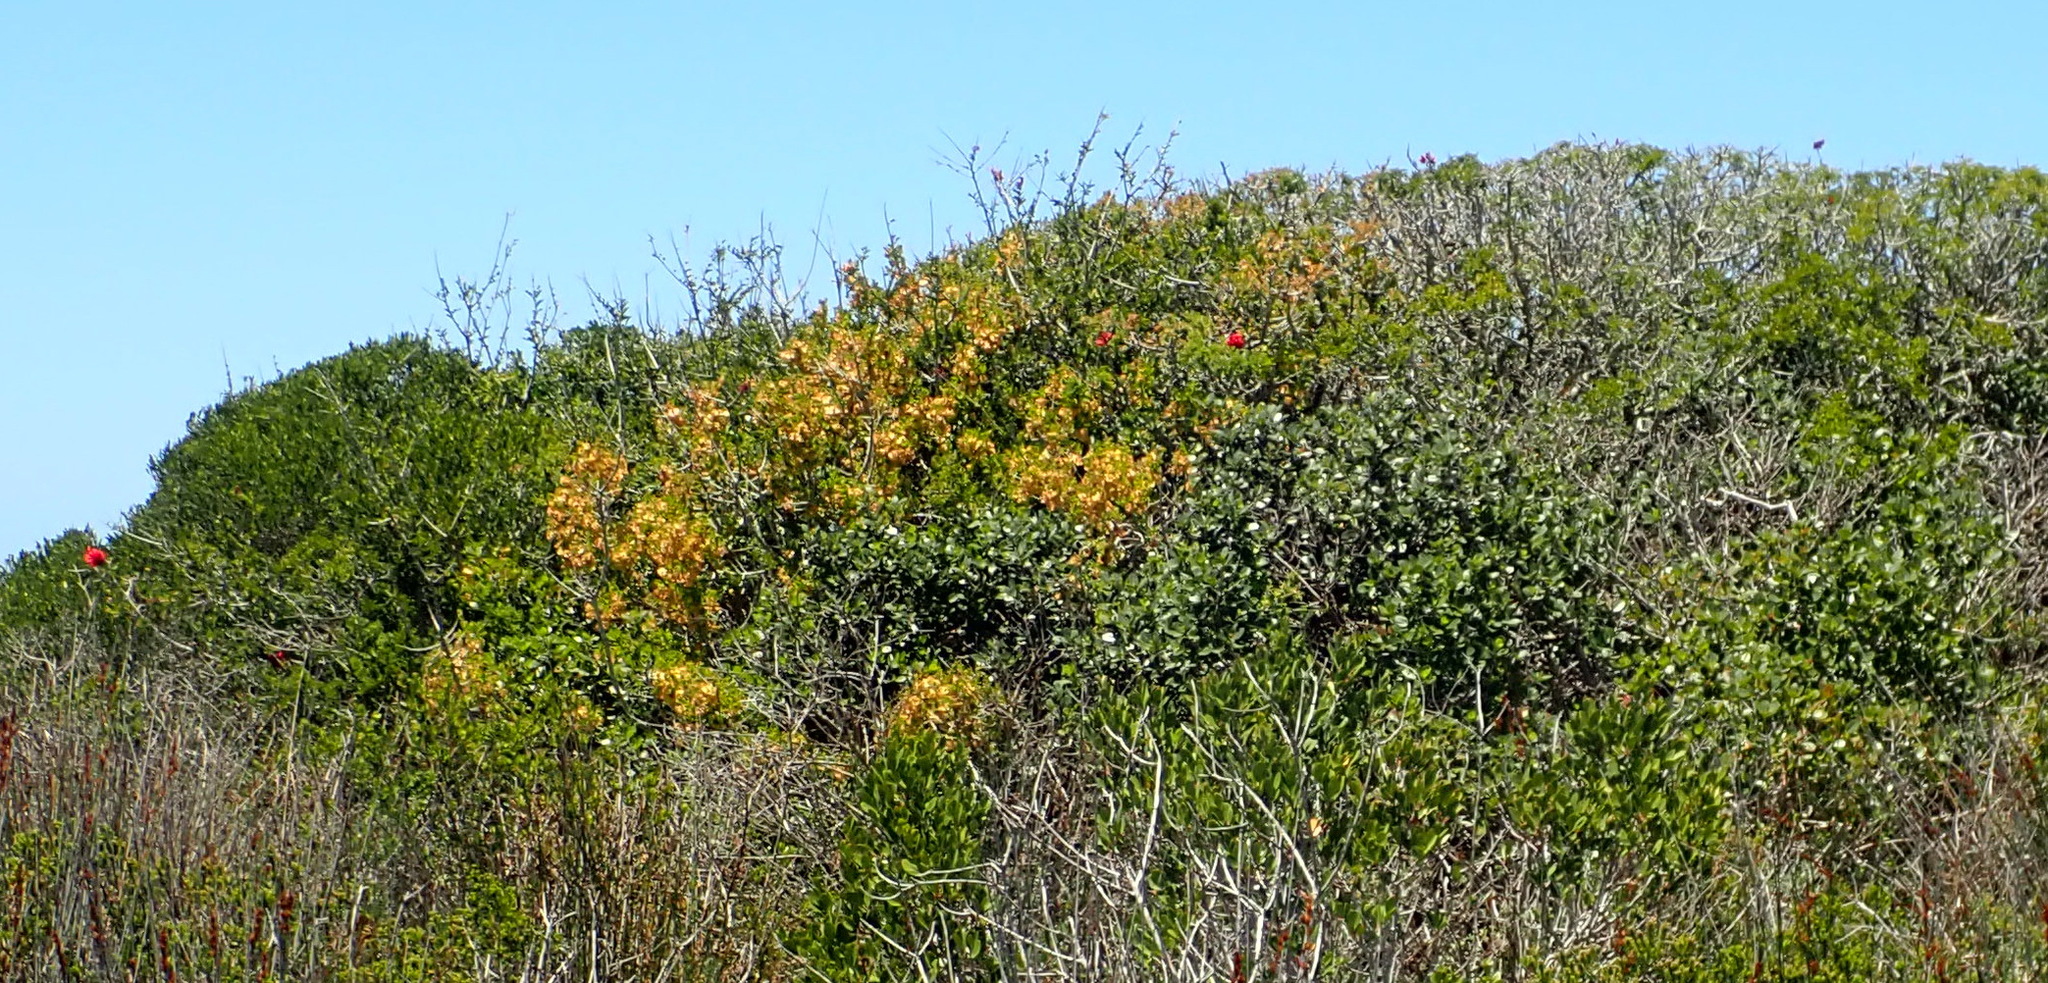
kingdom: Plantae
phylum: Tracheophyta
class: Magnoliopsida
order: Fabales
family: Fabaceae
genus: Schotia
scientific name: Schotia afra
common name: Hottentot's bean
